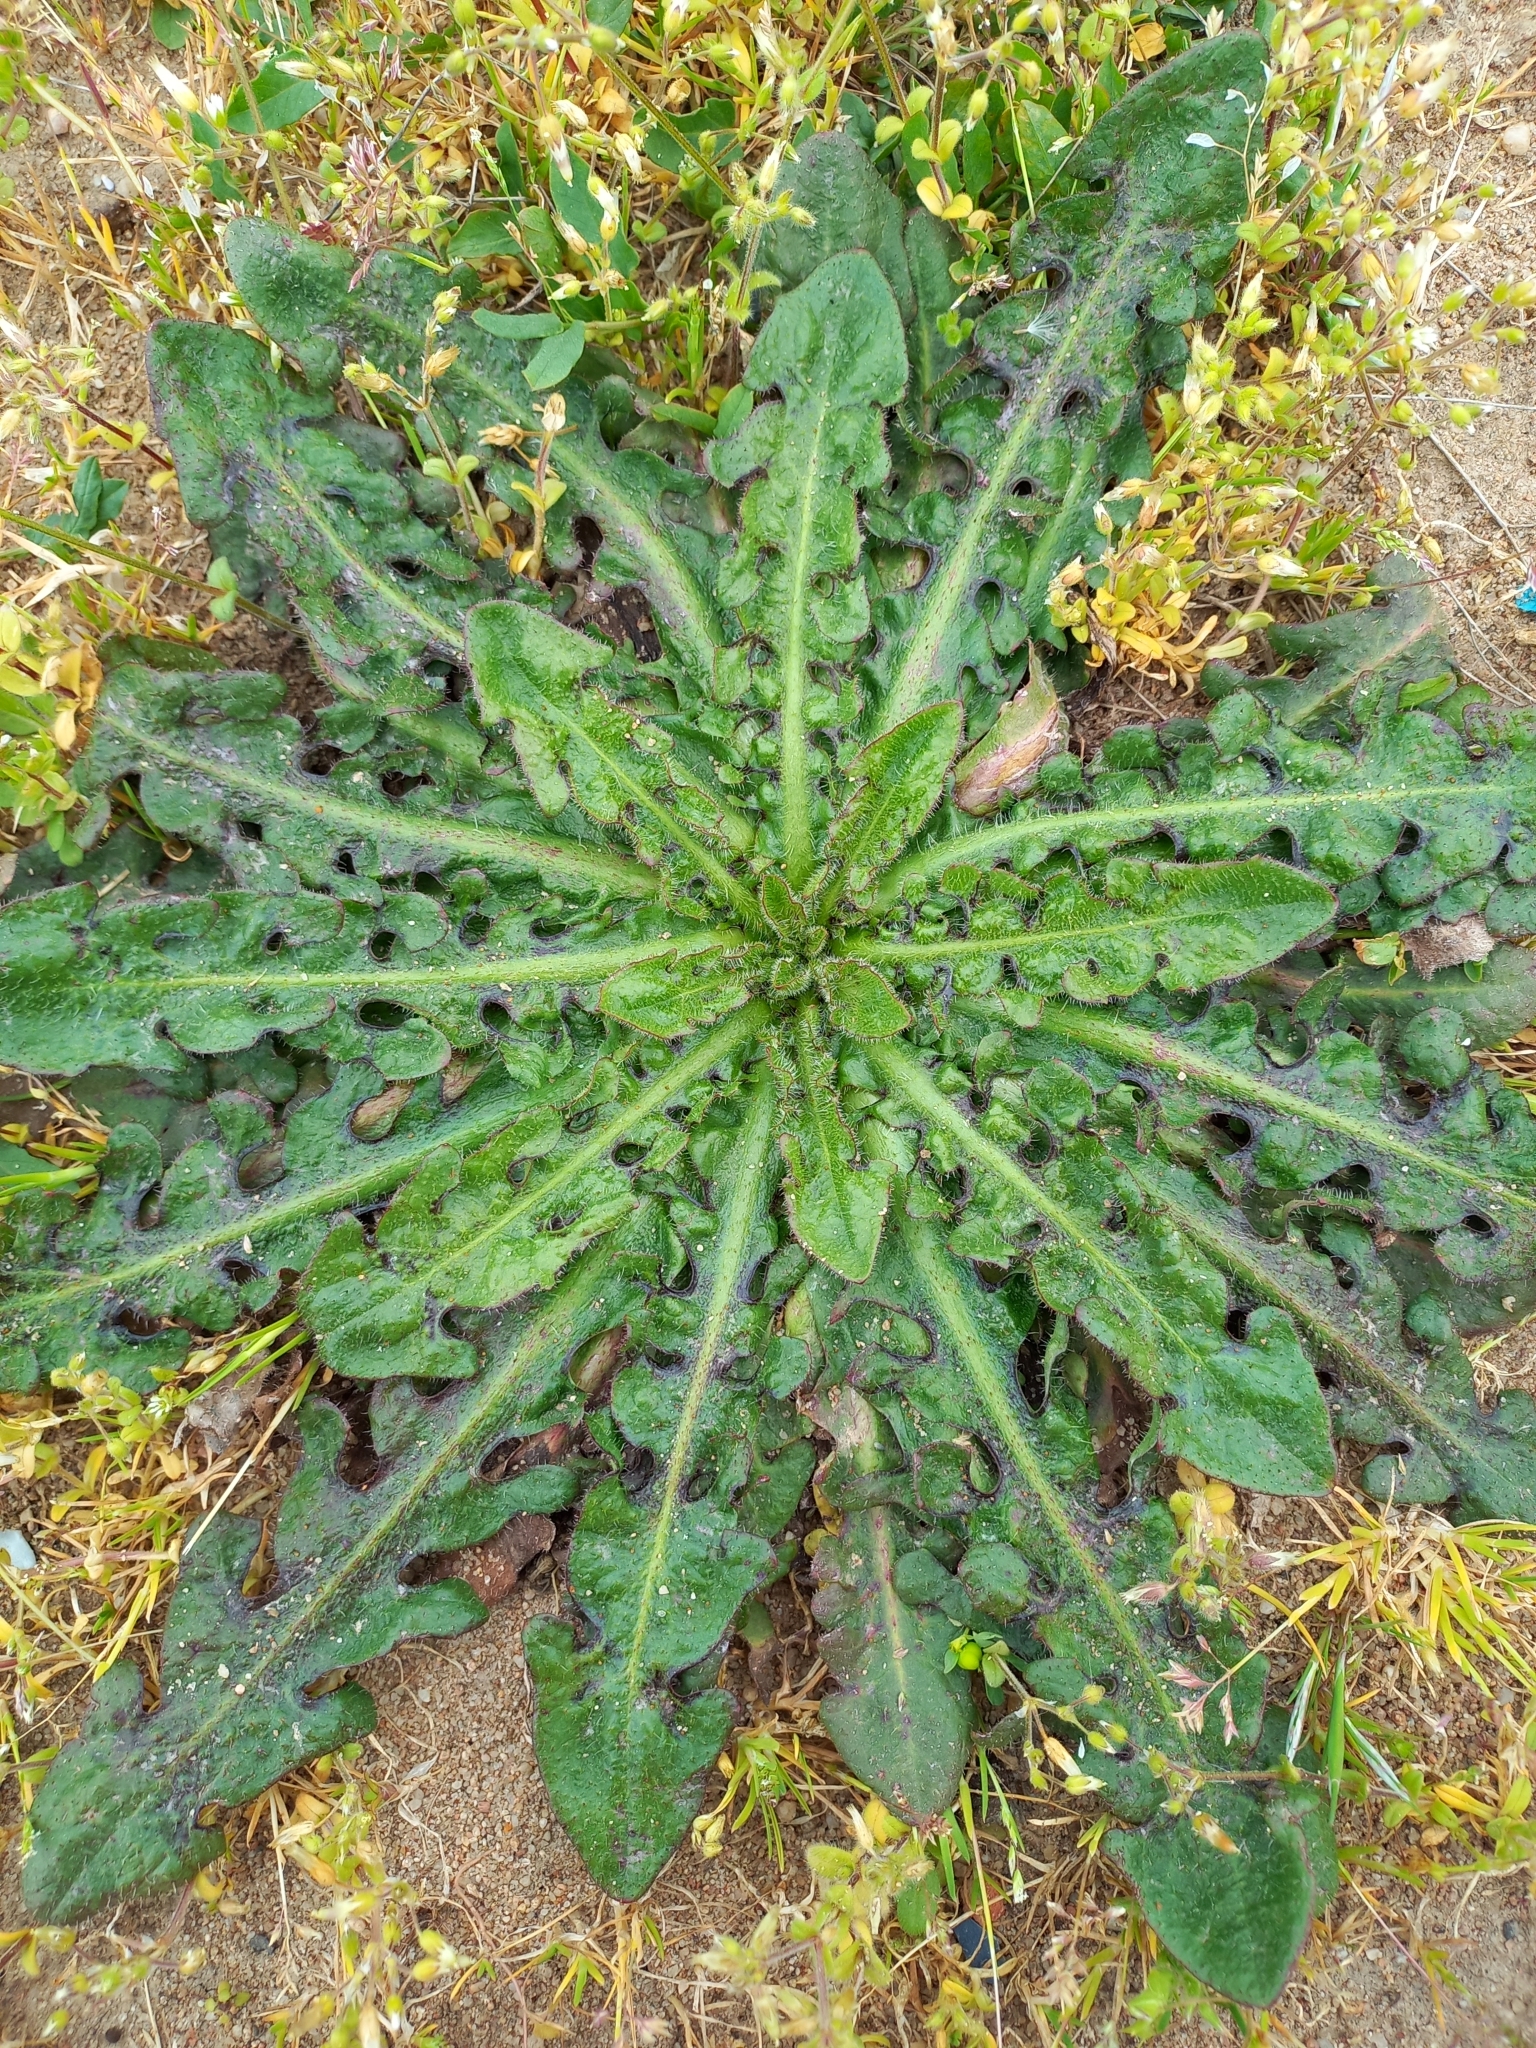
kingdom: Plantae
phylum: Tracheophyta
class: Magnoliopsida
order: Asterales
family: Asteraceae
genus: Hypochaeris
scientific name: Hypochaeris radicata
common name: Flatweed
